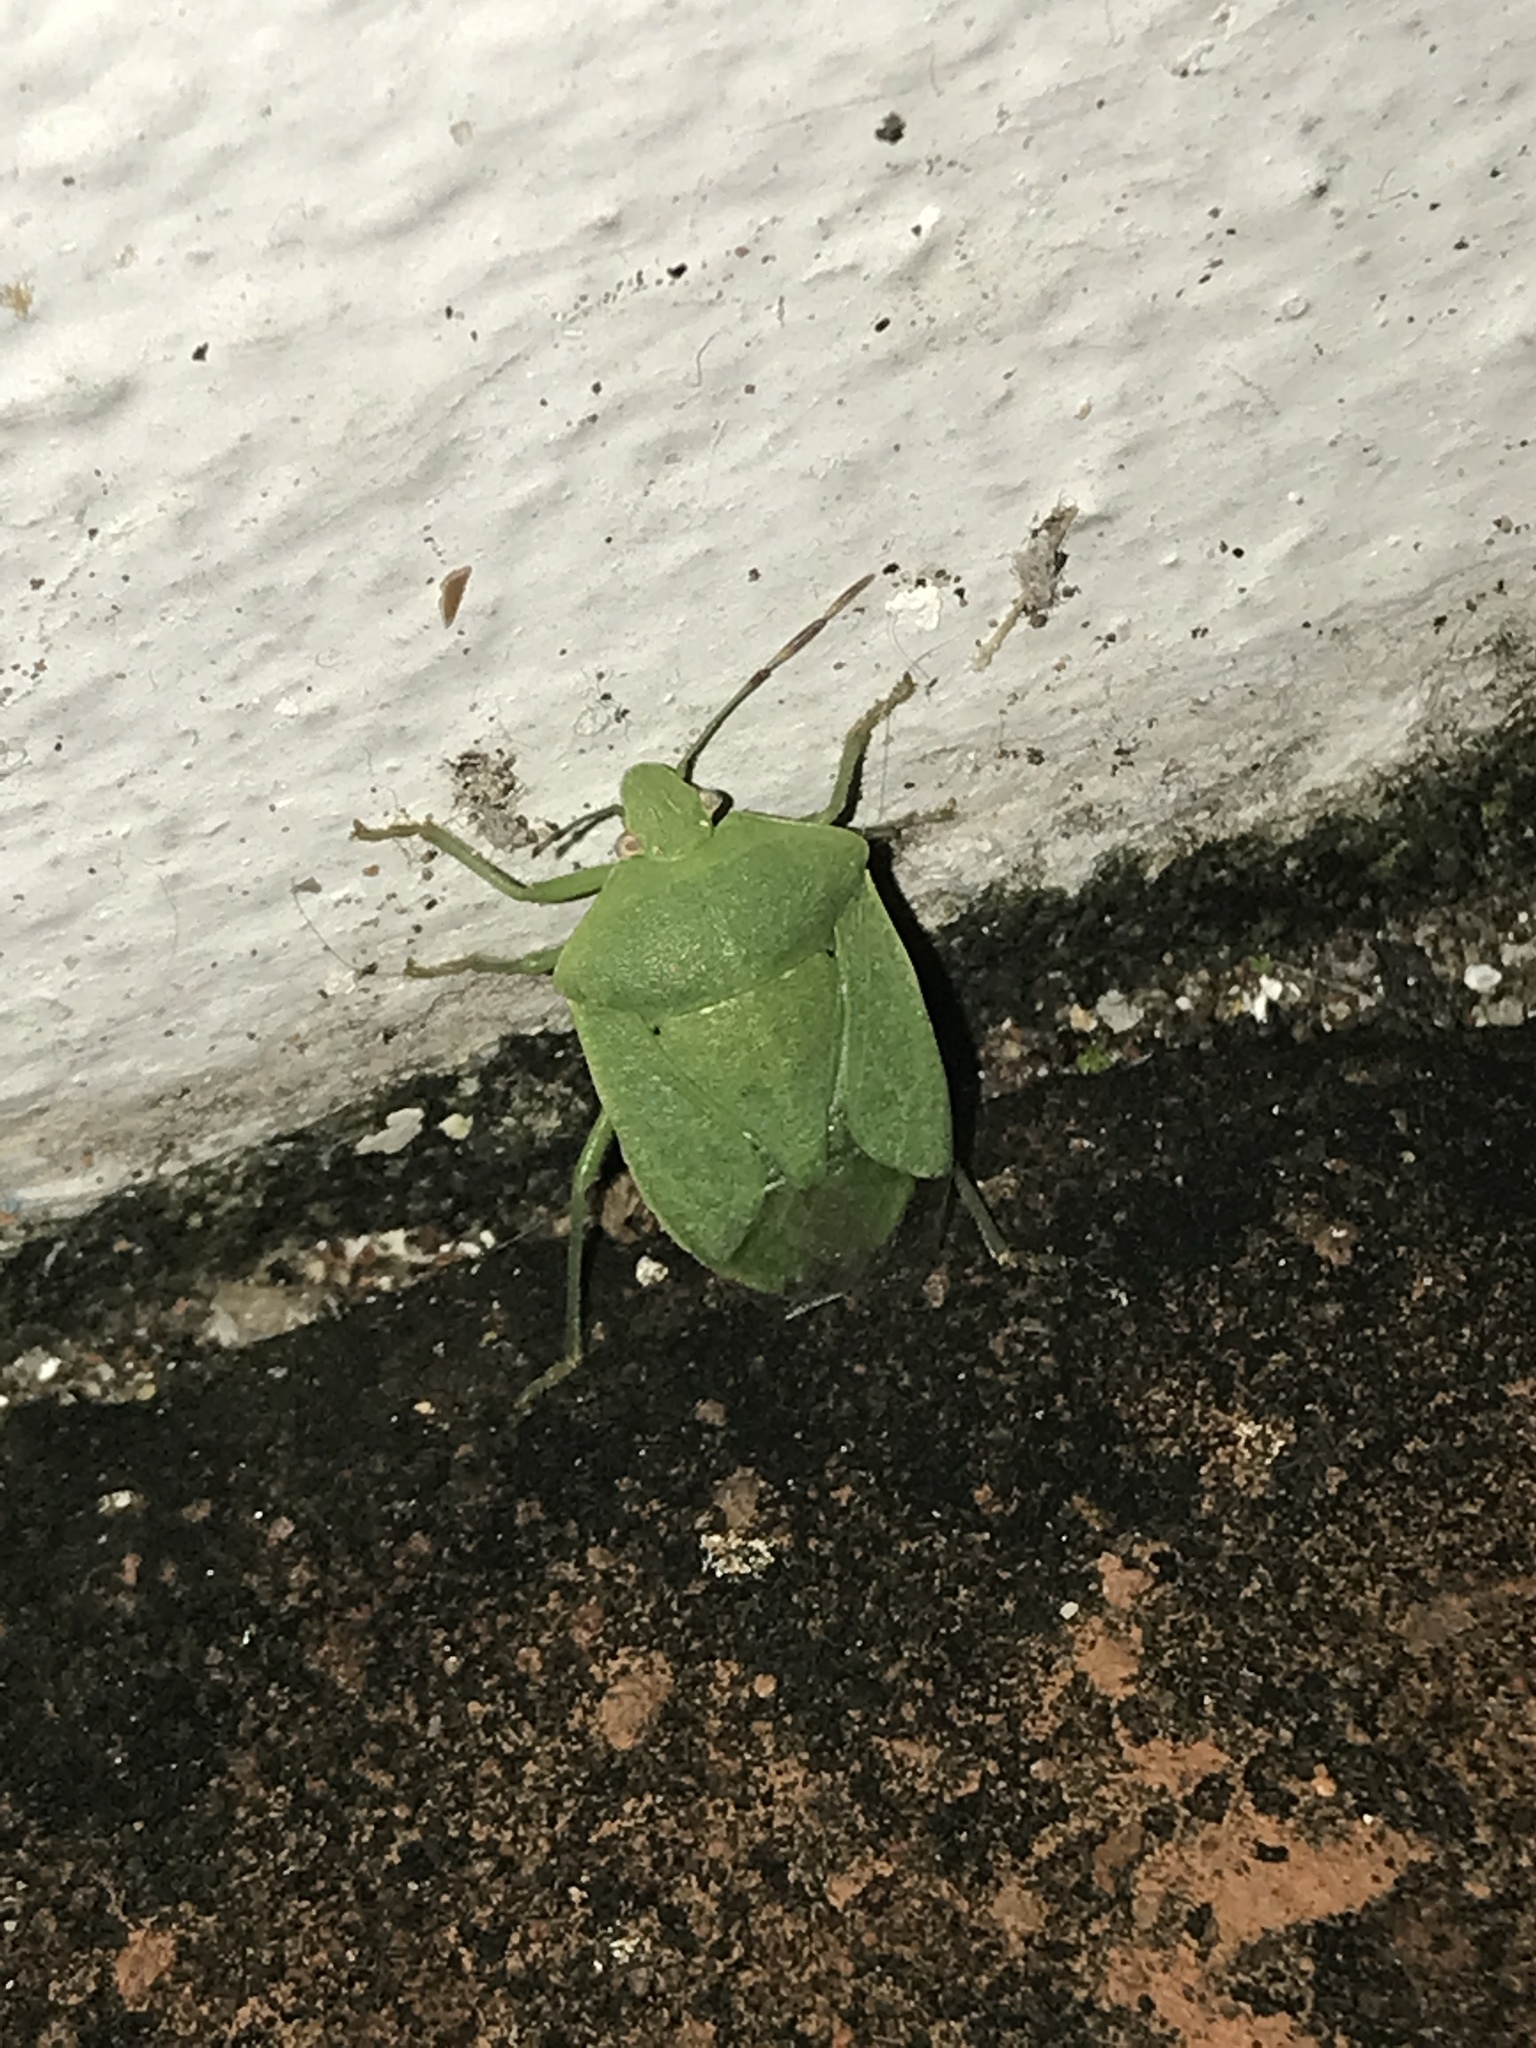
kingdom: Animalia
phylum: Arthropoda
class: Insecta
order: Hemiptera
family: Pentatomidae
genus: Nezara
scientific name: Nezara viridula
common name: Southern green stink bug
